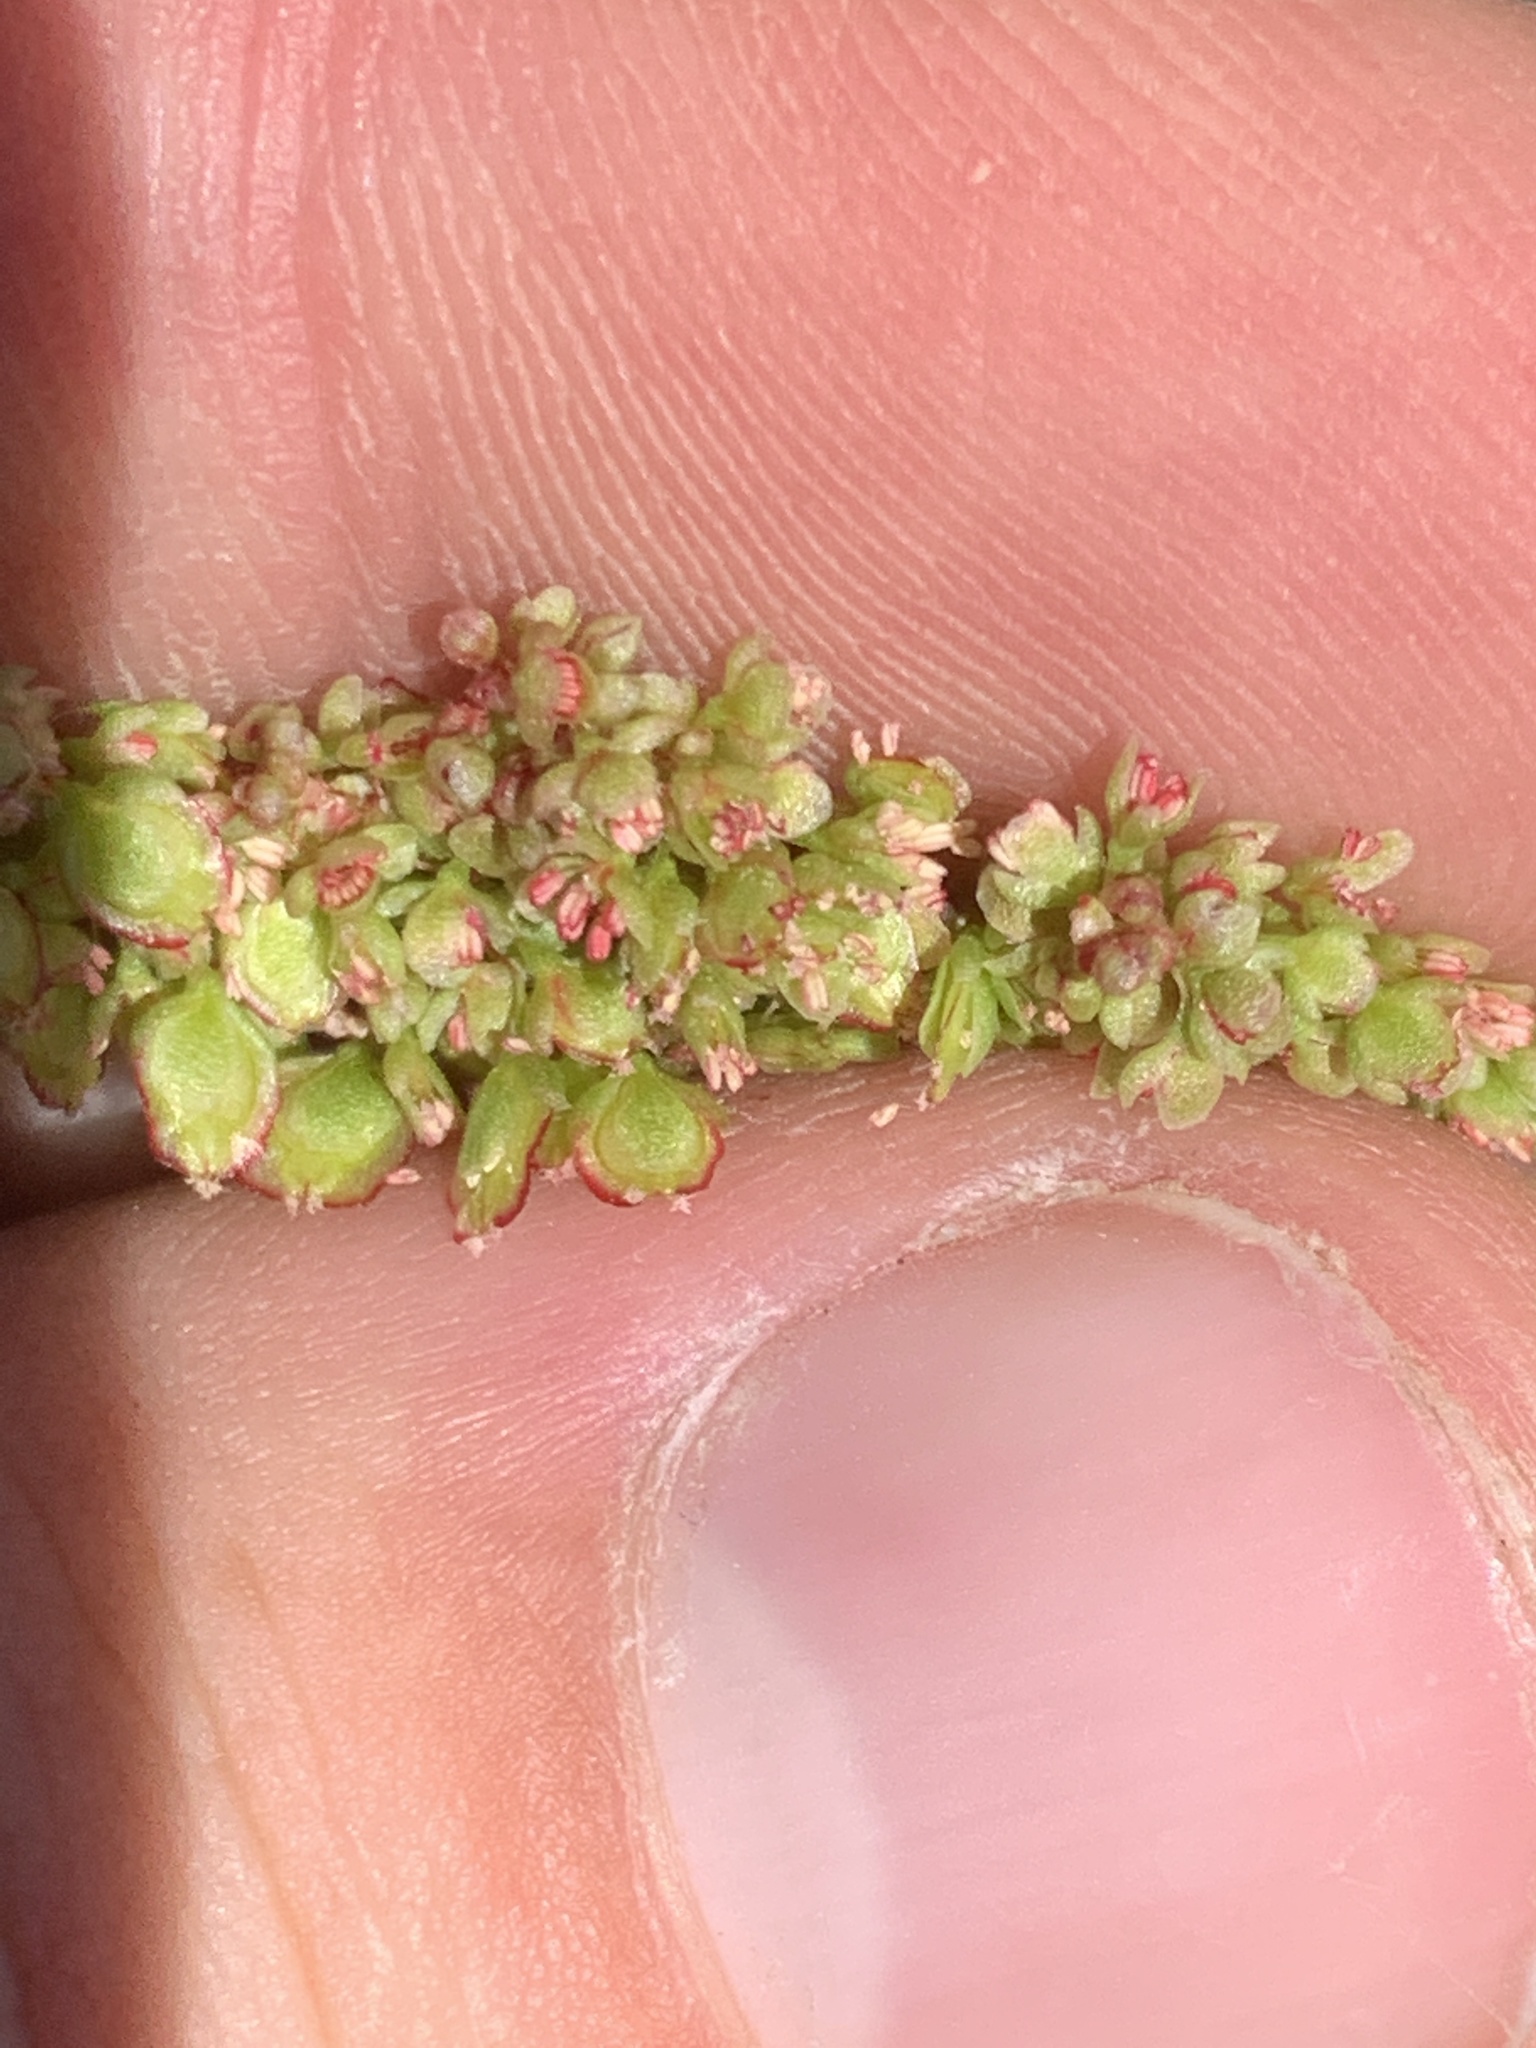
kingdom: Plantae
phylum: Tracheophyta
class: Magnoliopsida
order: Caryophyllales
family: Polygonaceae
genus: Oxyria
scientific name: Oxyria digyna
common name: Alpine mountain-sorrel
